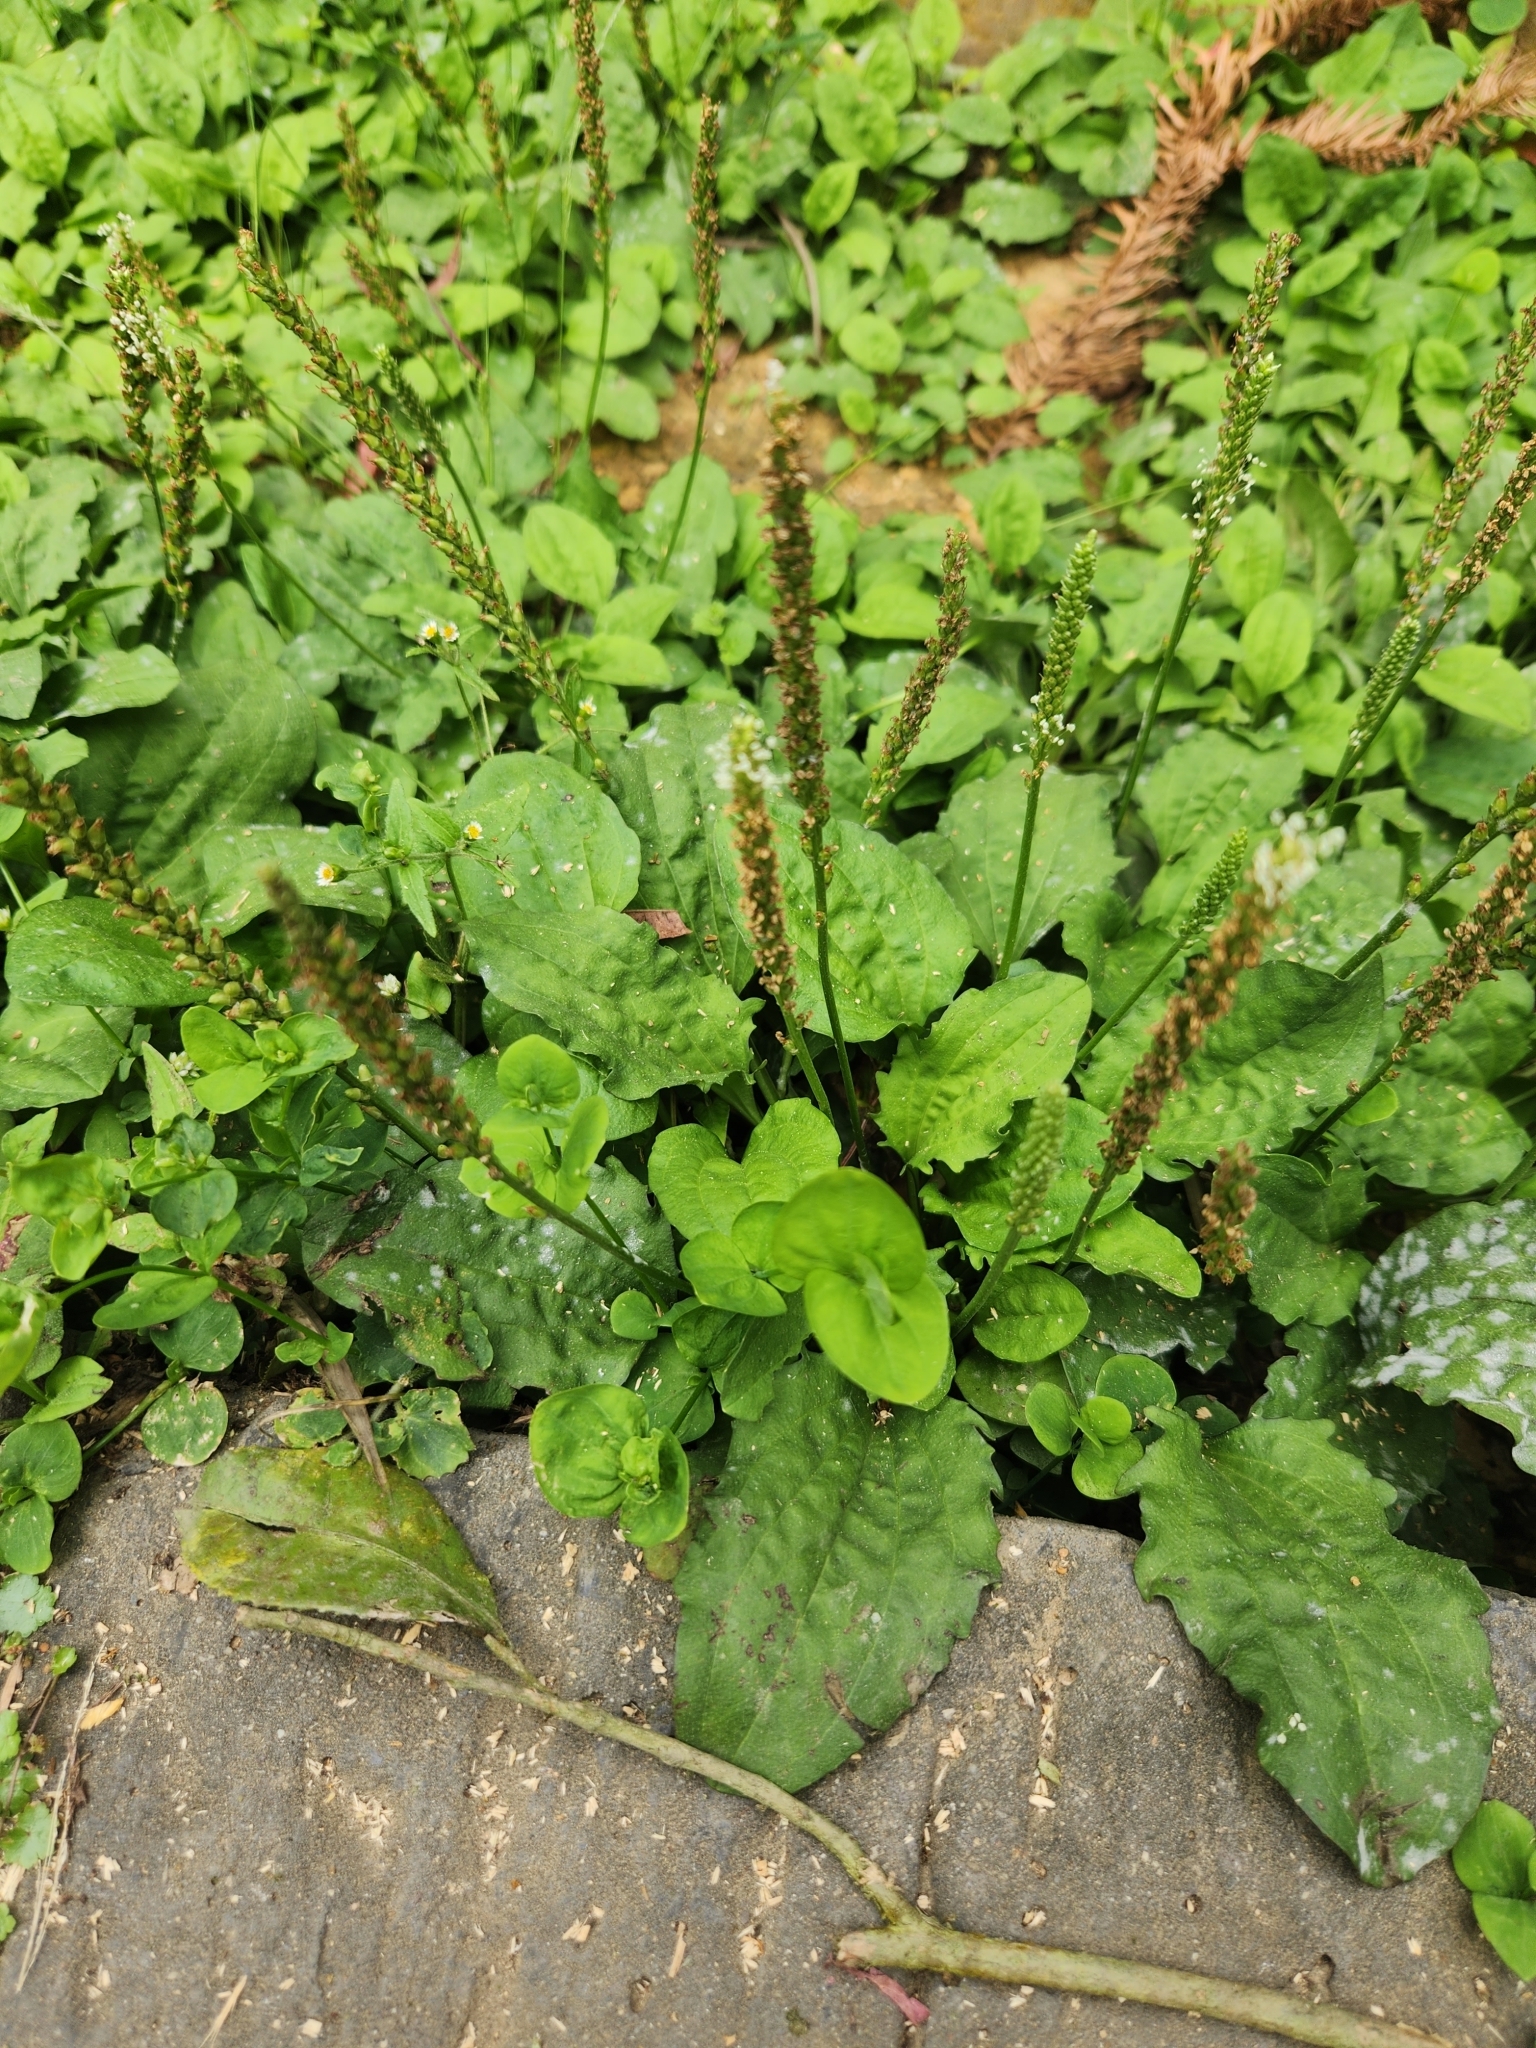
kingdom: Plantae
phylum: Tracheophyta
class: Magnoliopsida
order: Lamiales
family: Plantaginaceae
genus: Plantago
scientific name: Plantago asiatica
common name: Psyllium
